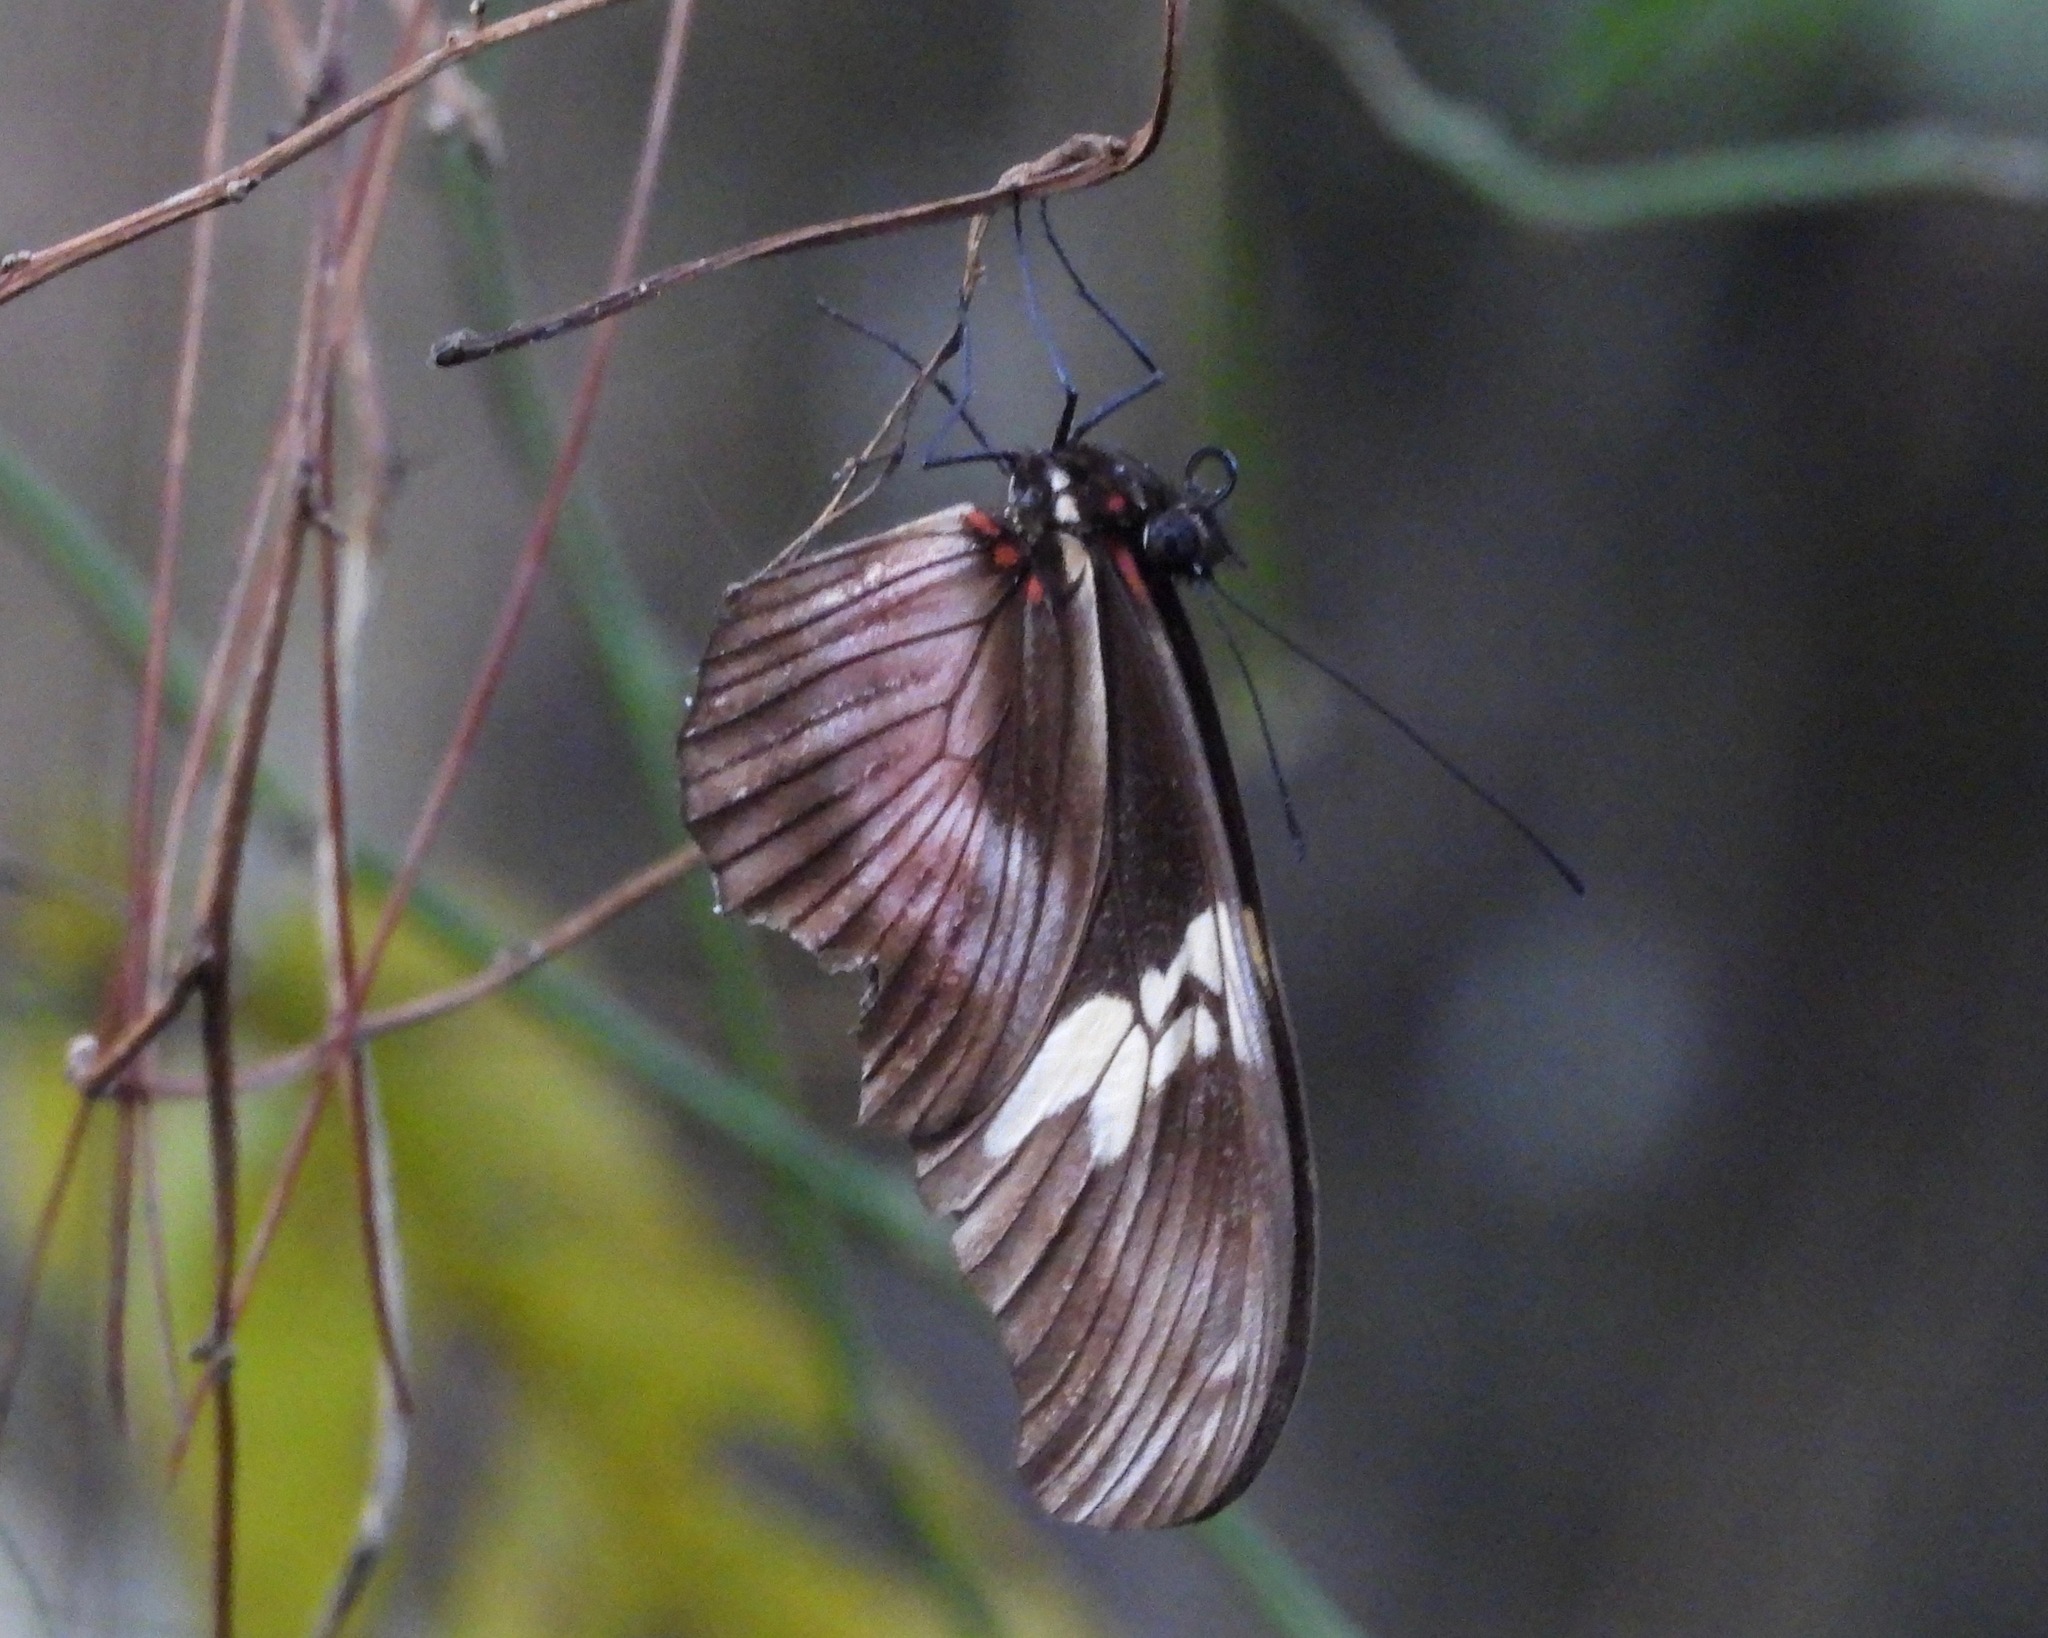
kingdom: Animalia
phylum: Arthropoda
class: Insecta
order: Lepidoptera
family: Nymphalidae
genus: Heliconius
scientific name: Heliconius hortense
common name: Mexican longwing
